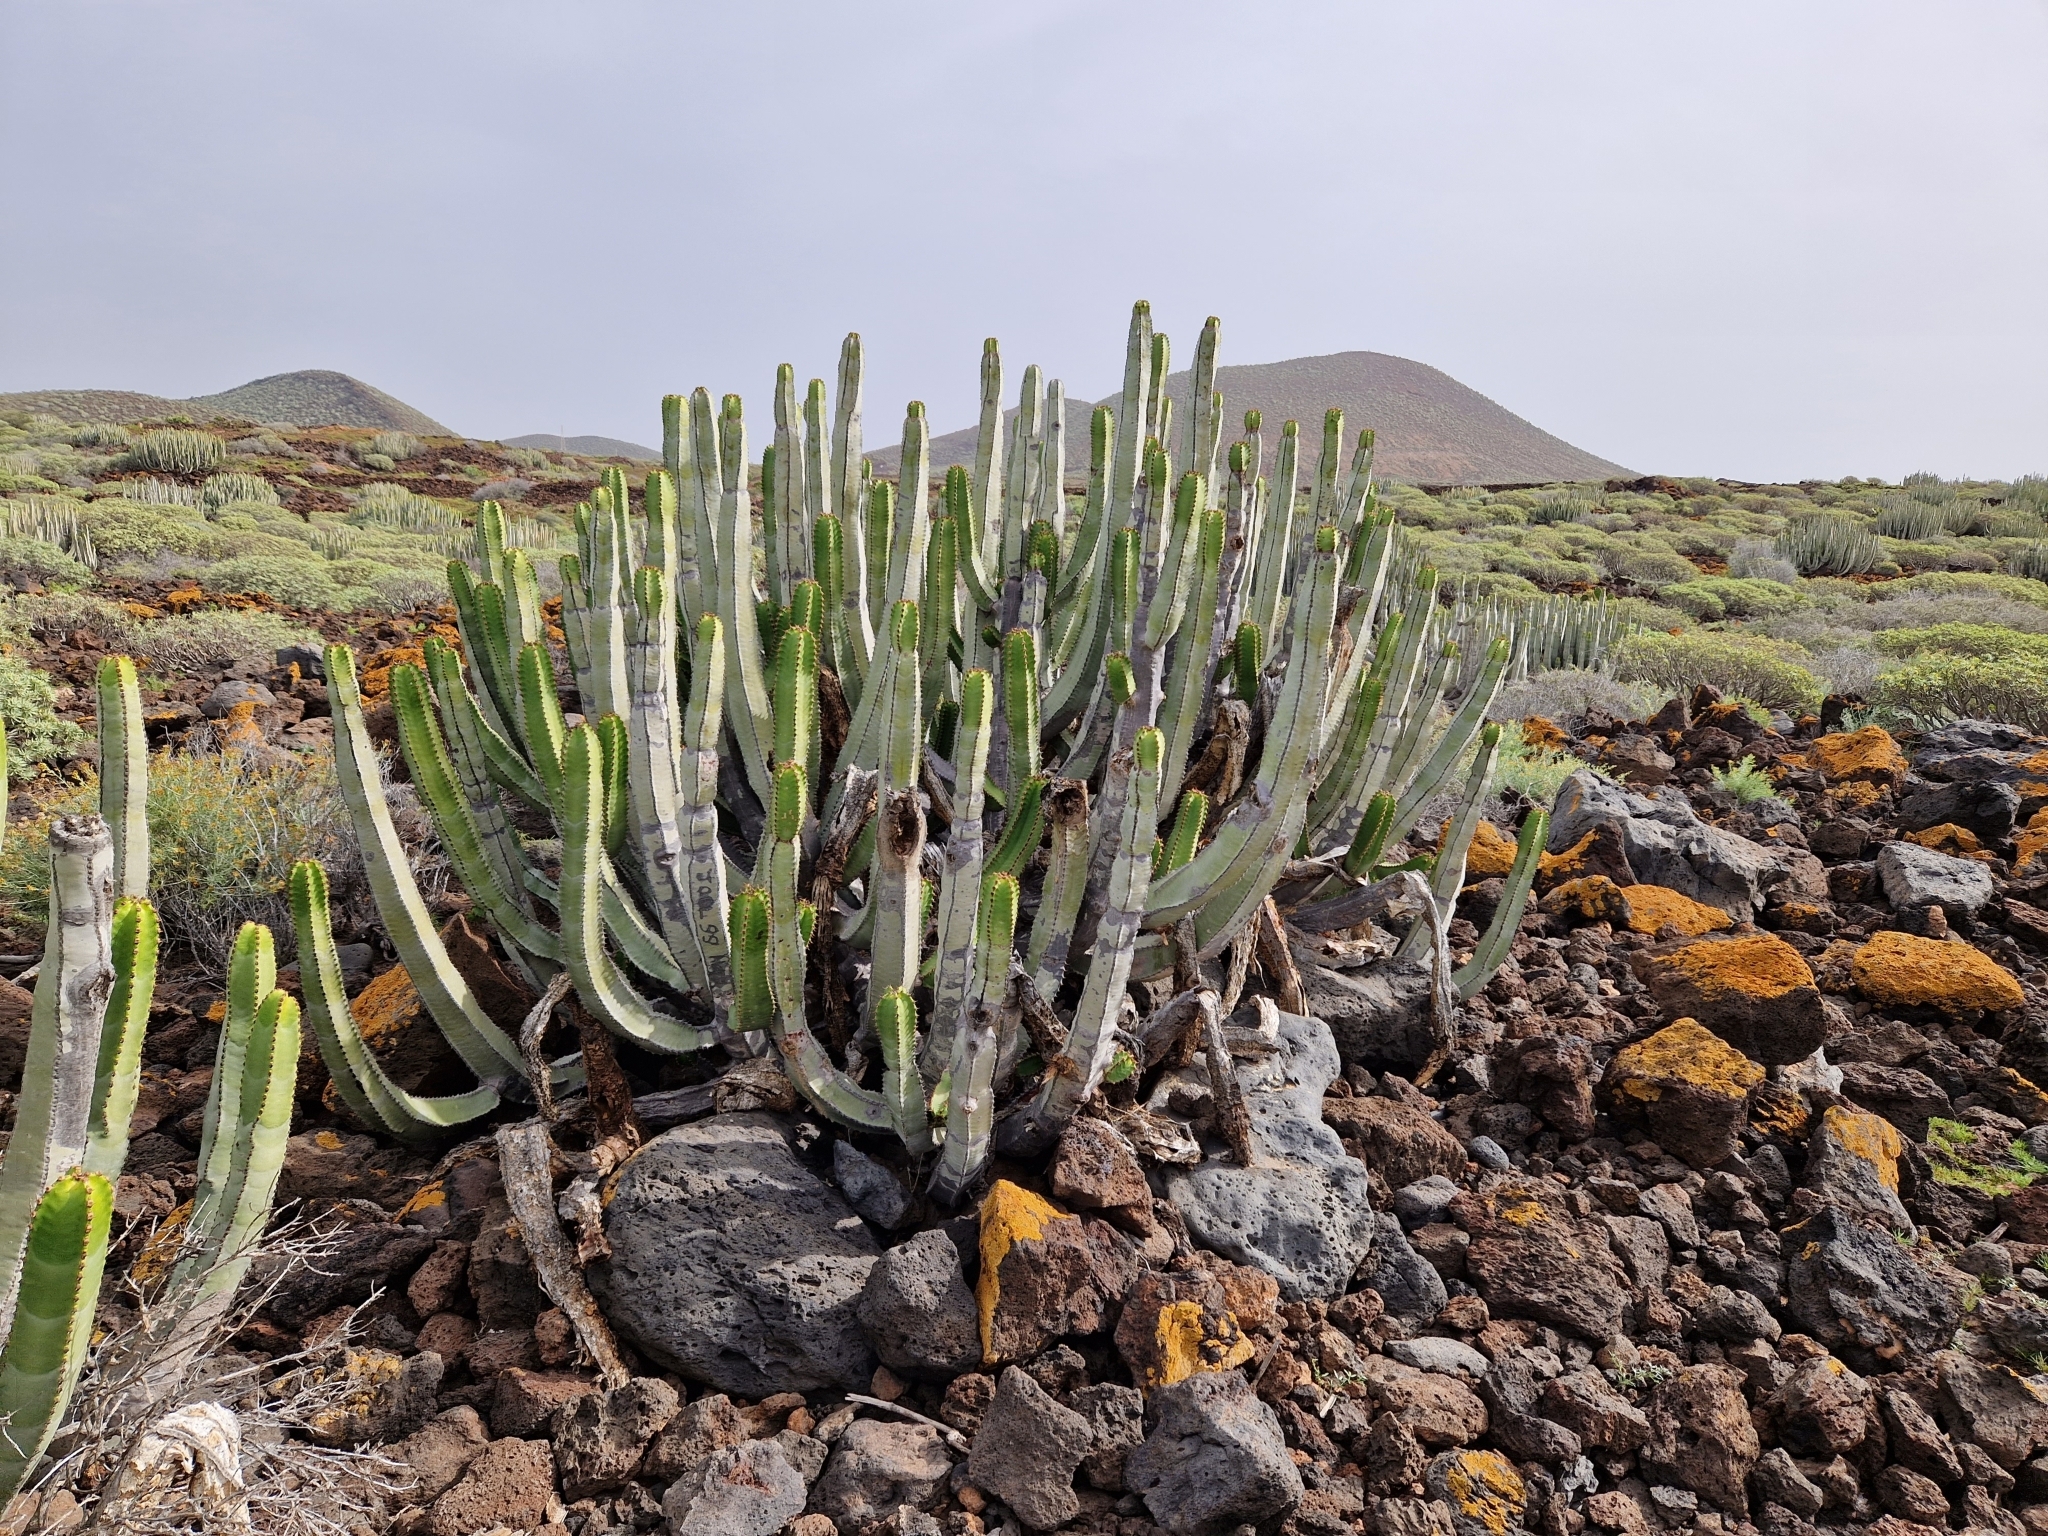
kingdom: Plantae
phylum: Tracheophyta
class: Magnoliopsida
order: Malpighiales
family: Euphorbiaceae
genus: Euphorbia
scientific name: Euphorbia canariensis
